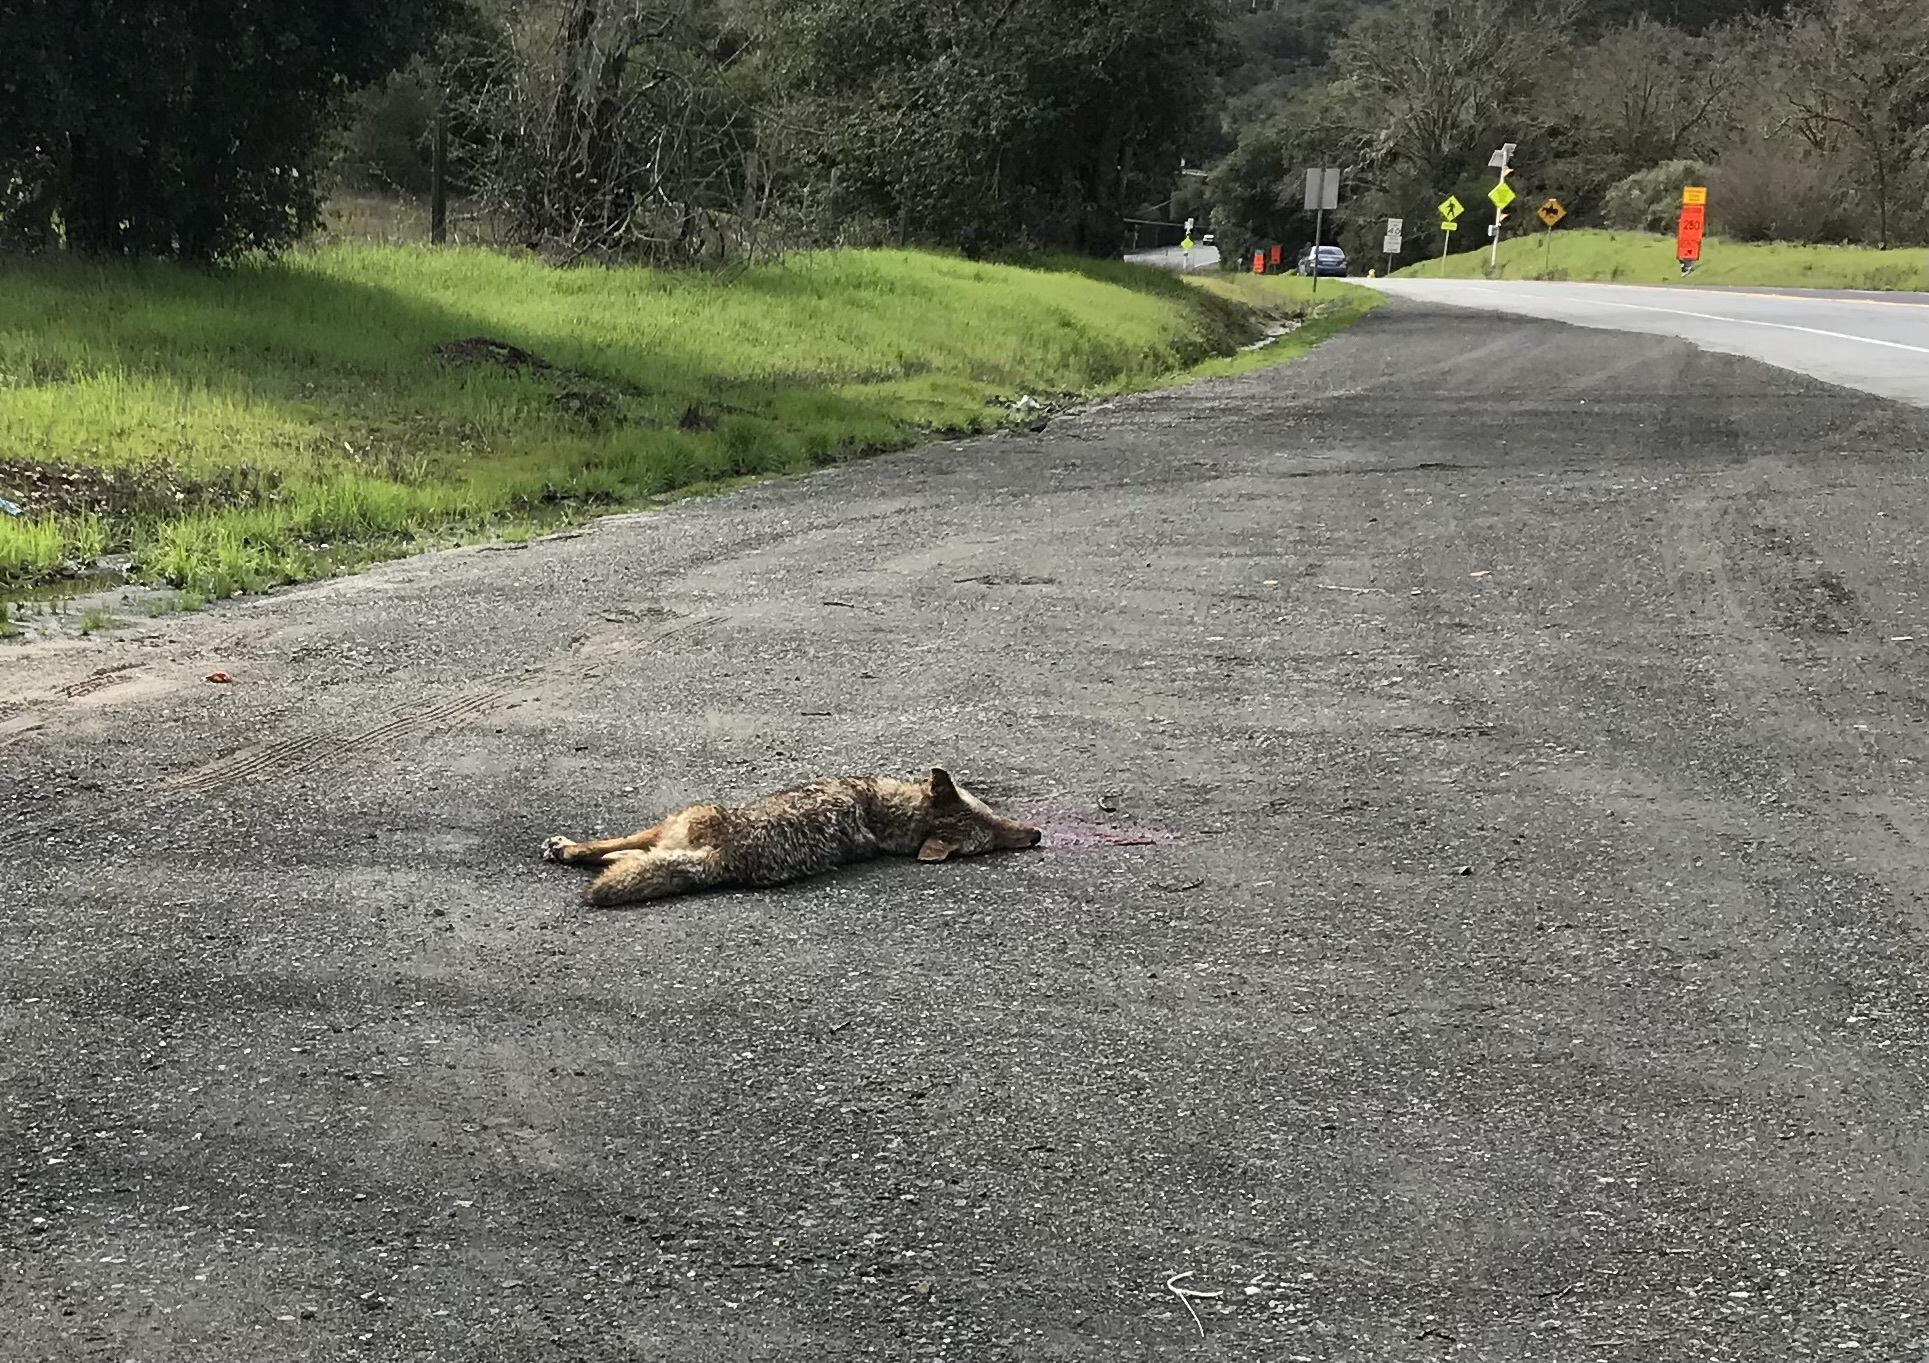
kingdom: Animalia
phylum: Chordata
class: Mammalia
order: Carnivora
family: Canidae
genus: Canis
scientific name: Canis latrans
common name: Coyote
